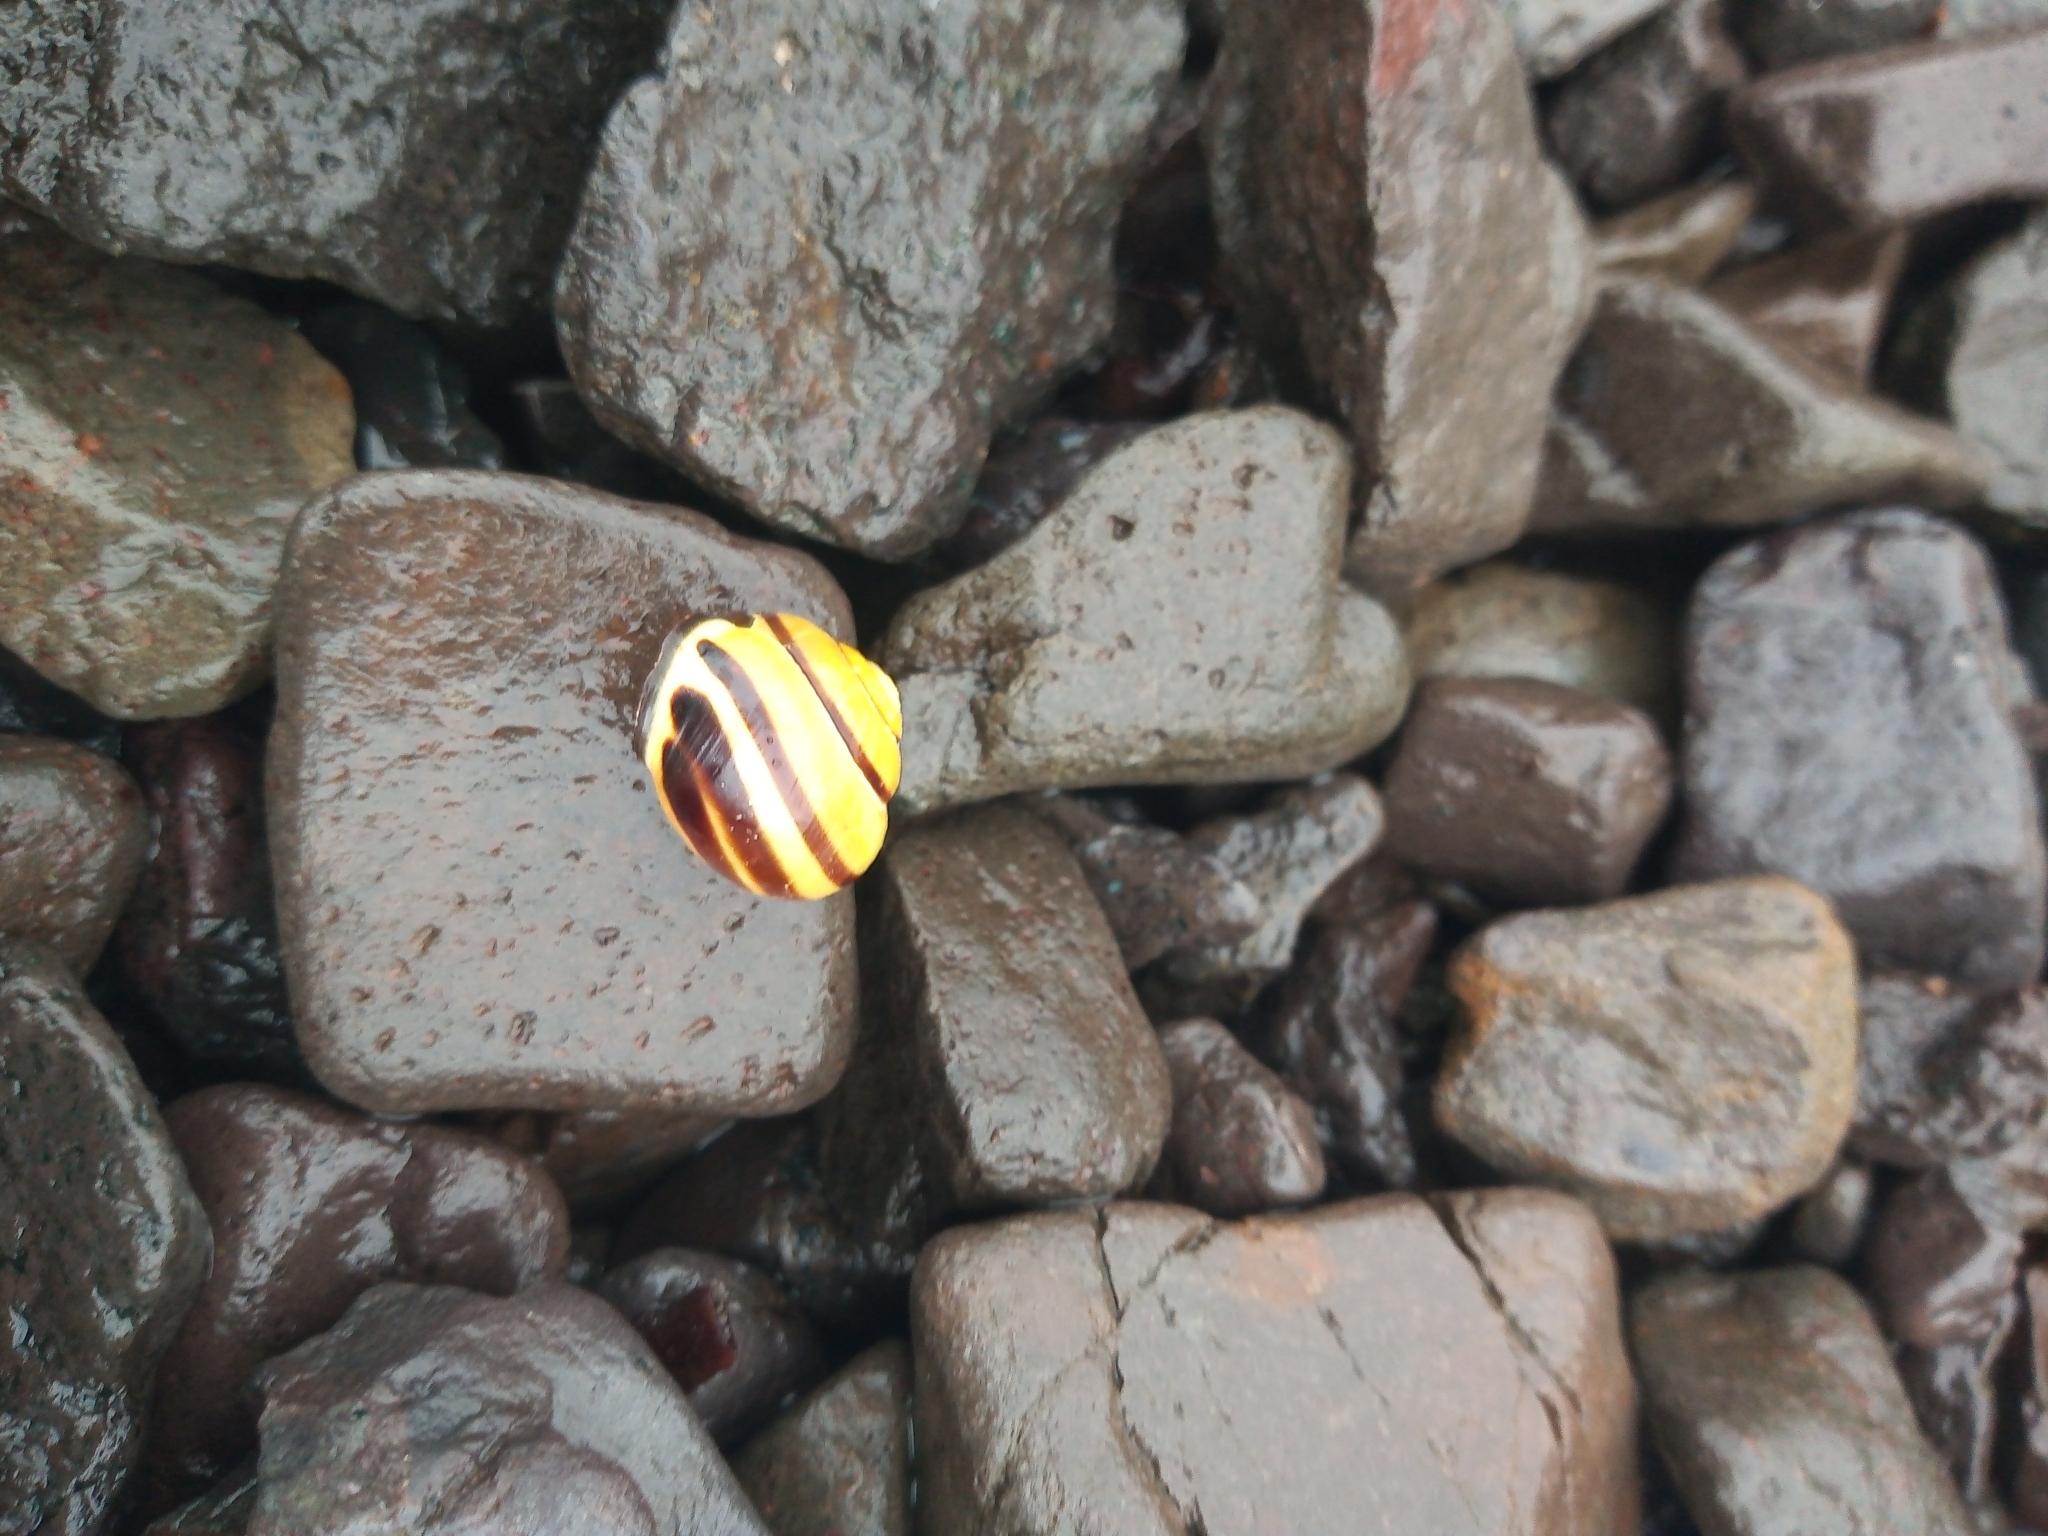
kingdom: Animalia
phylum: Mollusca
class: Gastropoda
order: Stylommatophora
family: Helicidae
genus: Cepaea
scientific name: Cepaea nemoralis
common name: Grovesnail
